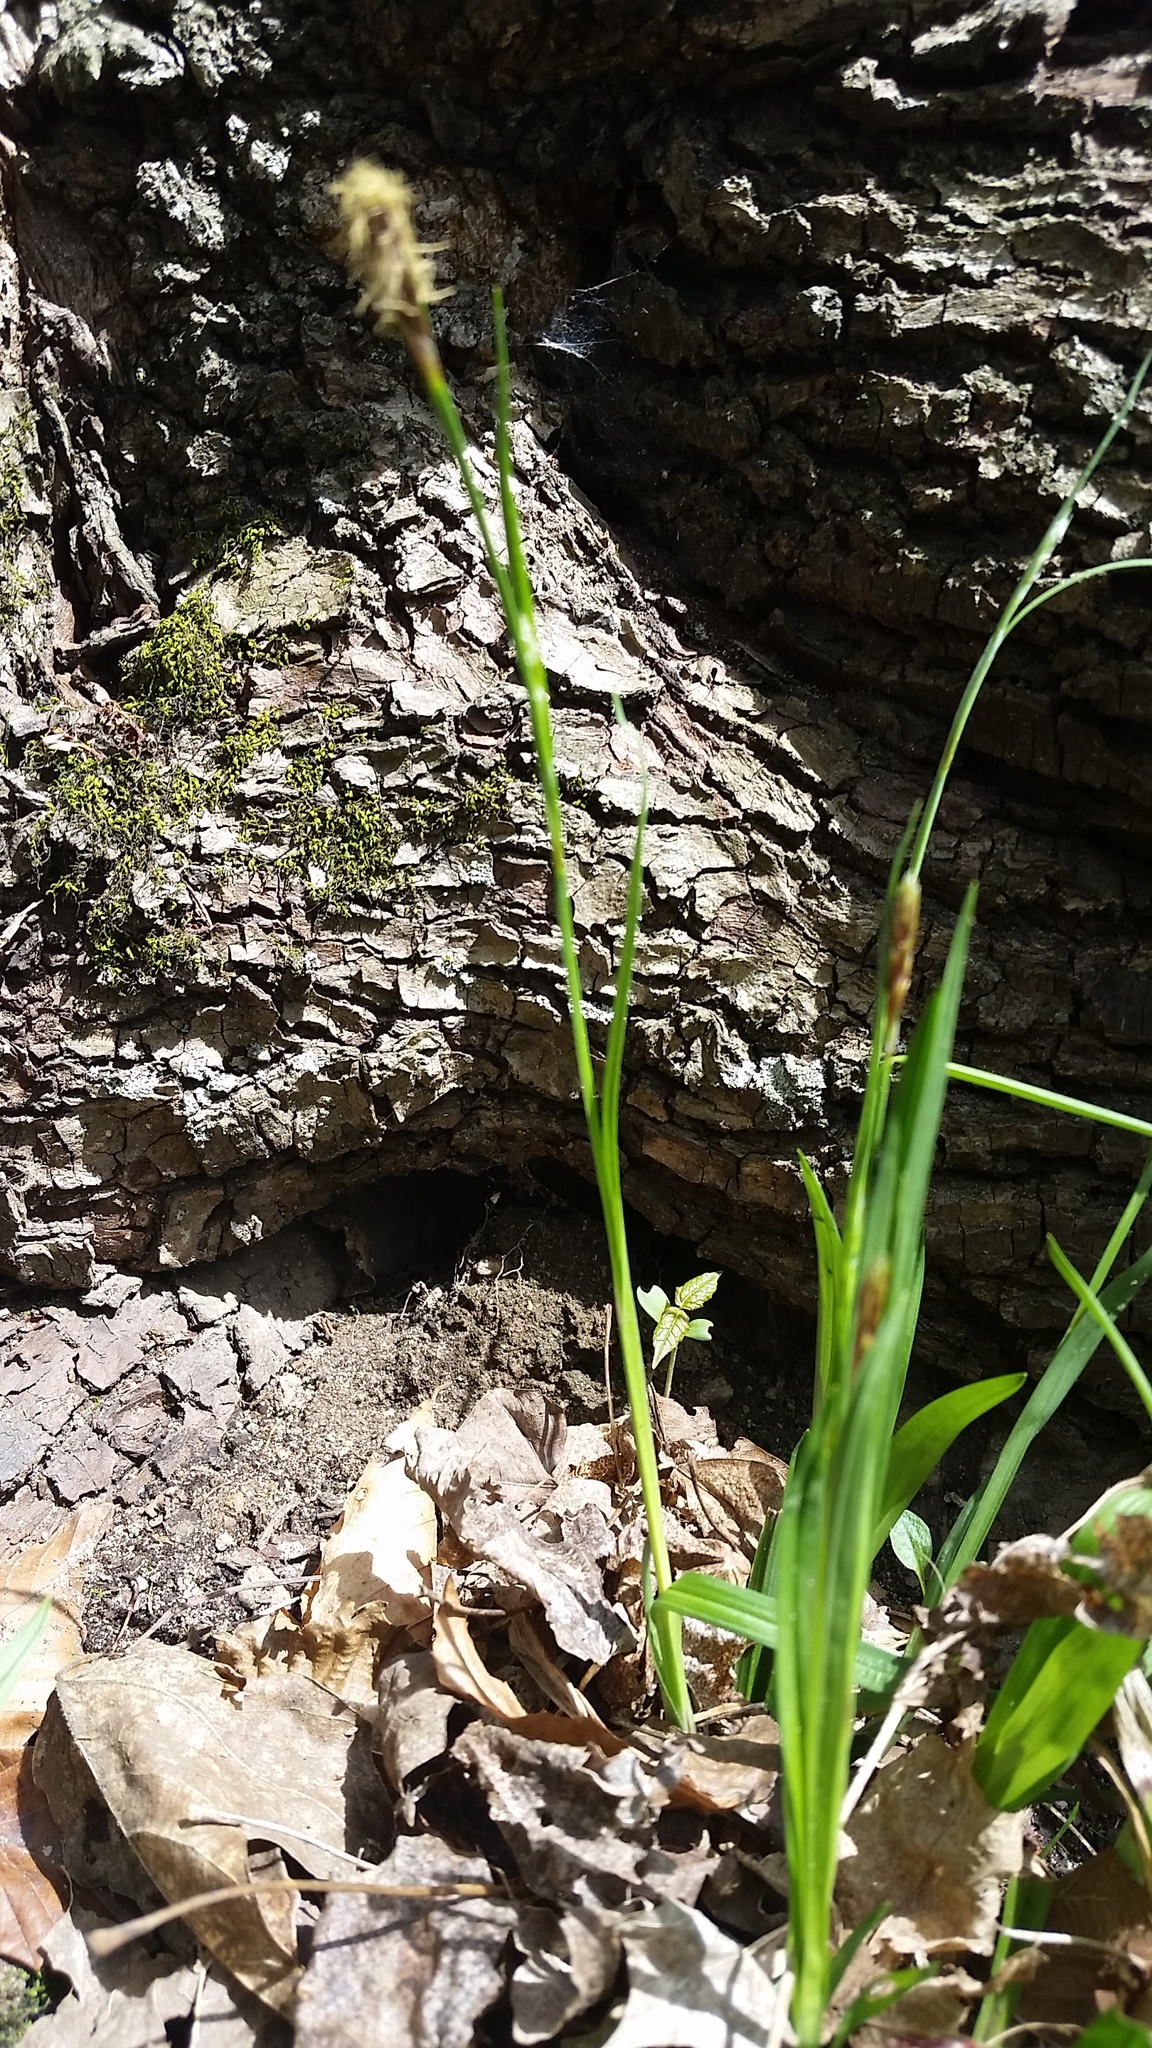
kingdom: Plantae
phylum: Tracheophyta
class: Liliopsida
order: Poales
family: Cyperaceae
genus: Carex
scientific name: Carex careyana
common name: Carey's sedge
